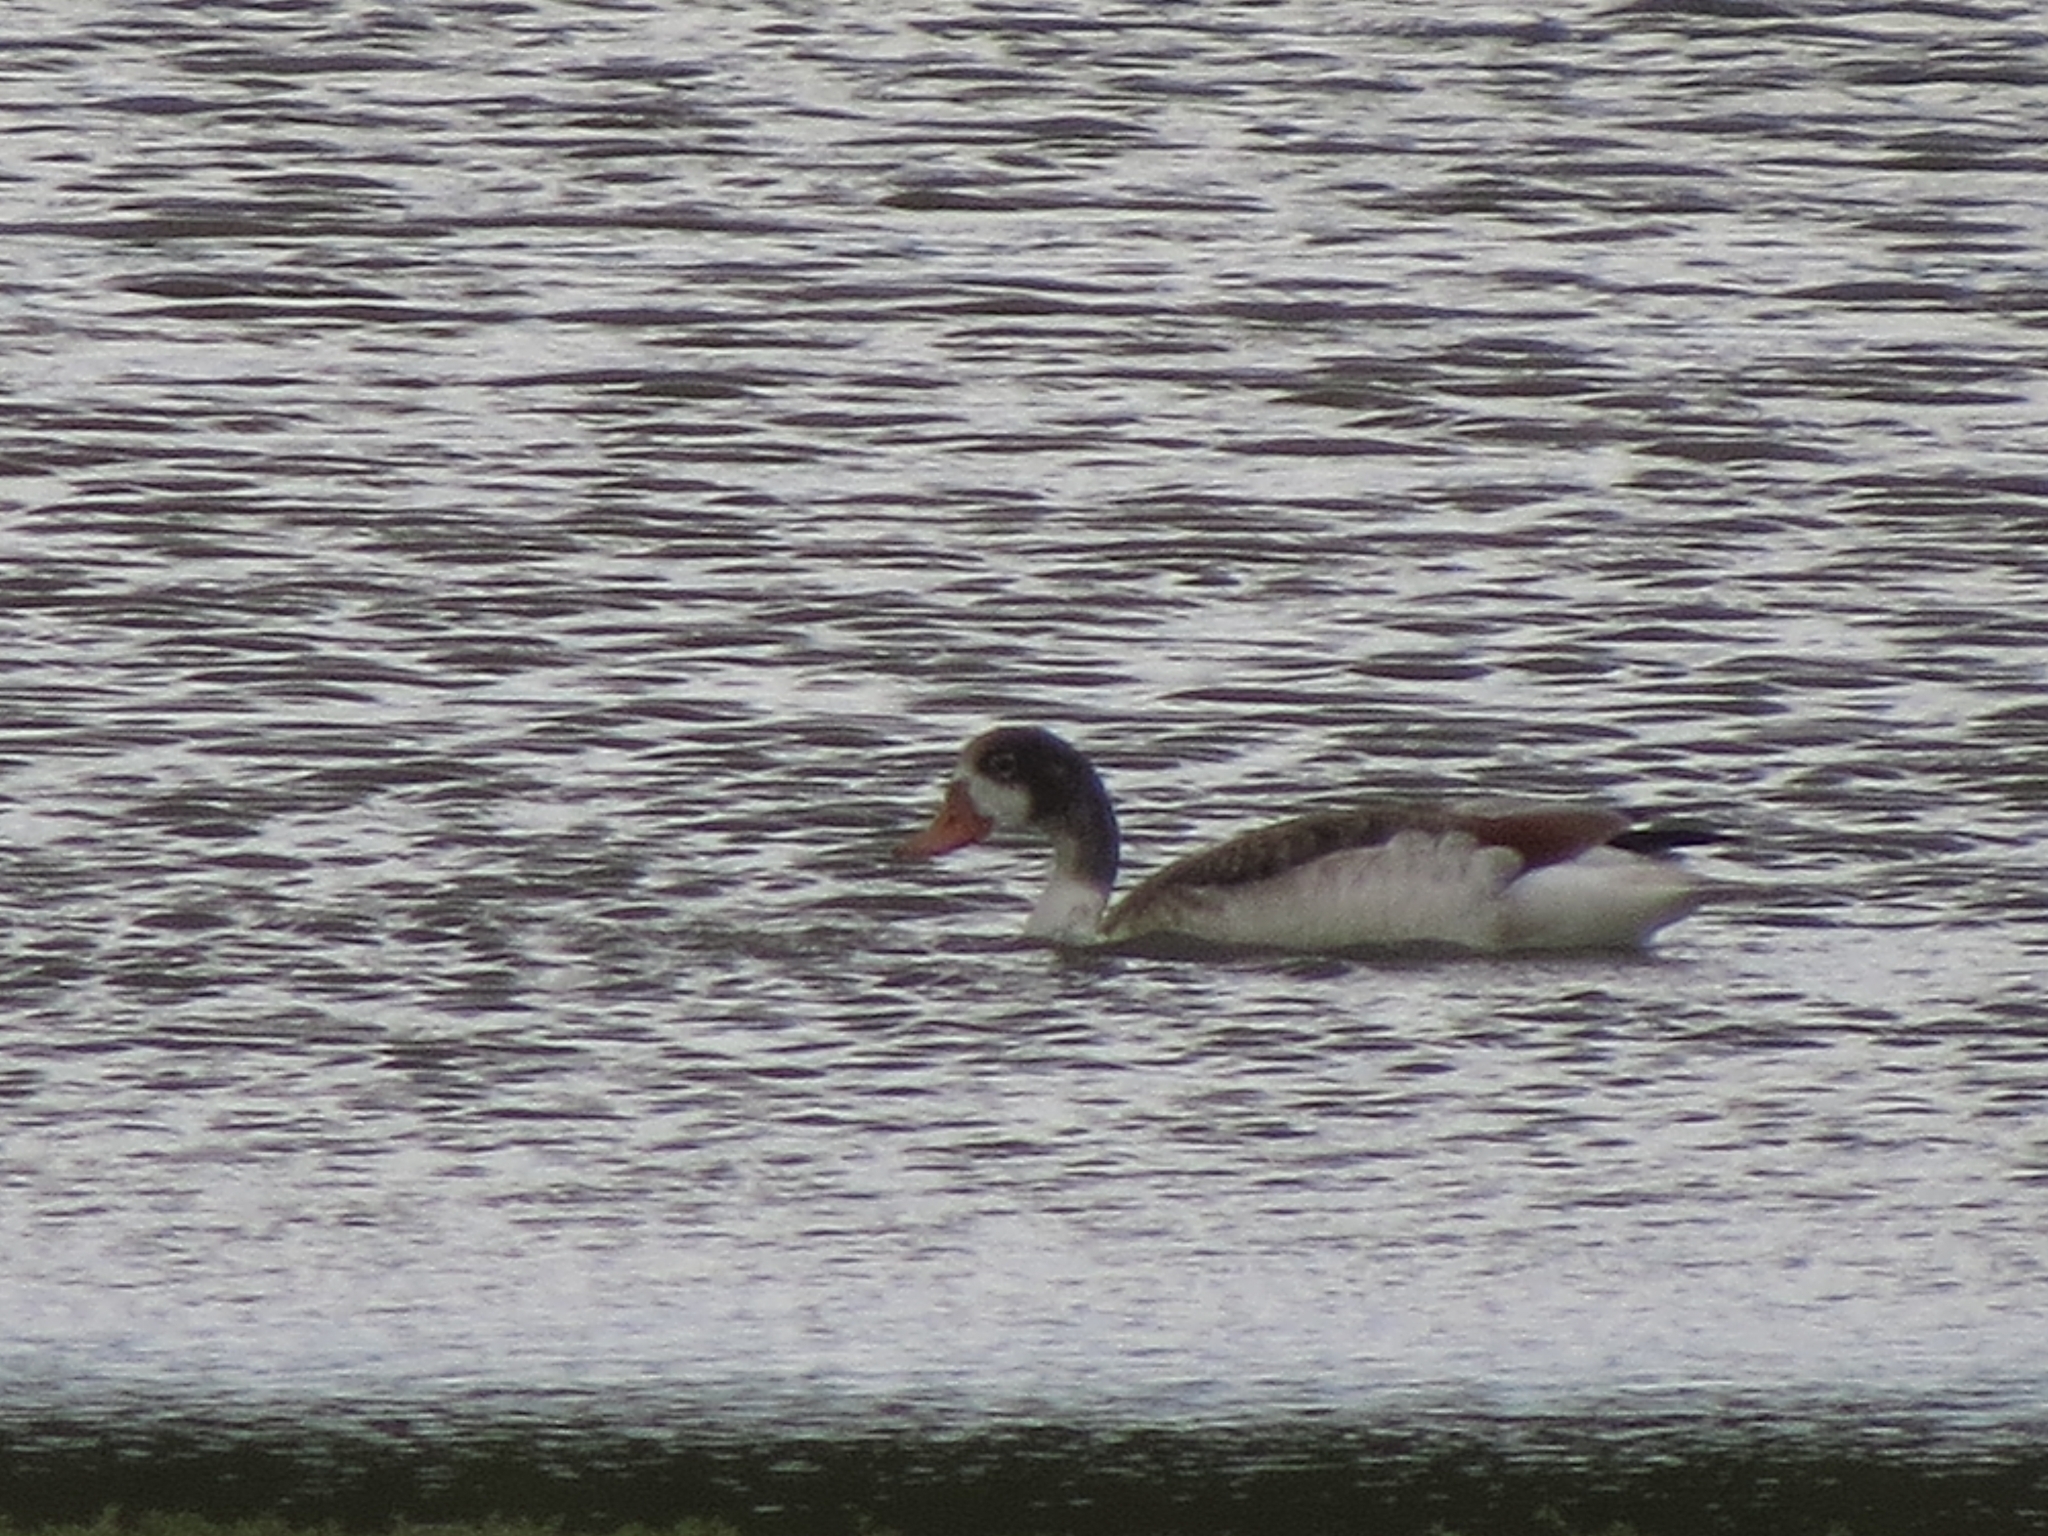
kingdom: Animalia
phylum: Chordata
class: Aves
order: Anseriformes
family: Anatidae
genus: Tadorna
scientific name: Tadorna tadorna
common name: Common shelduck
